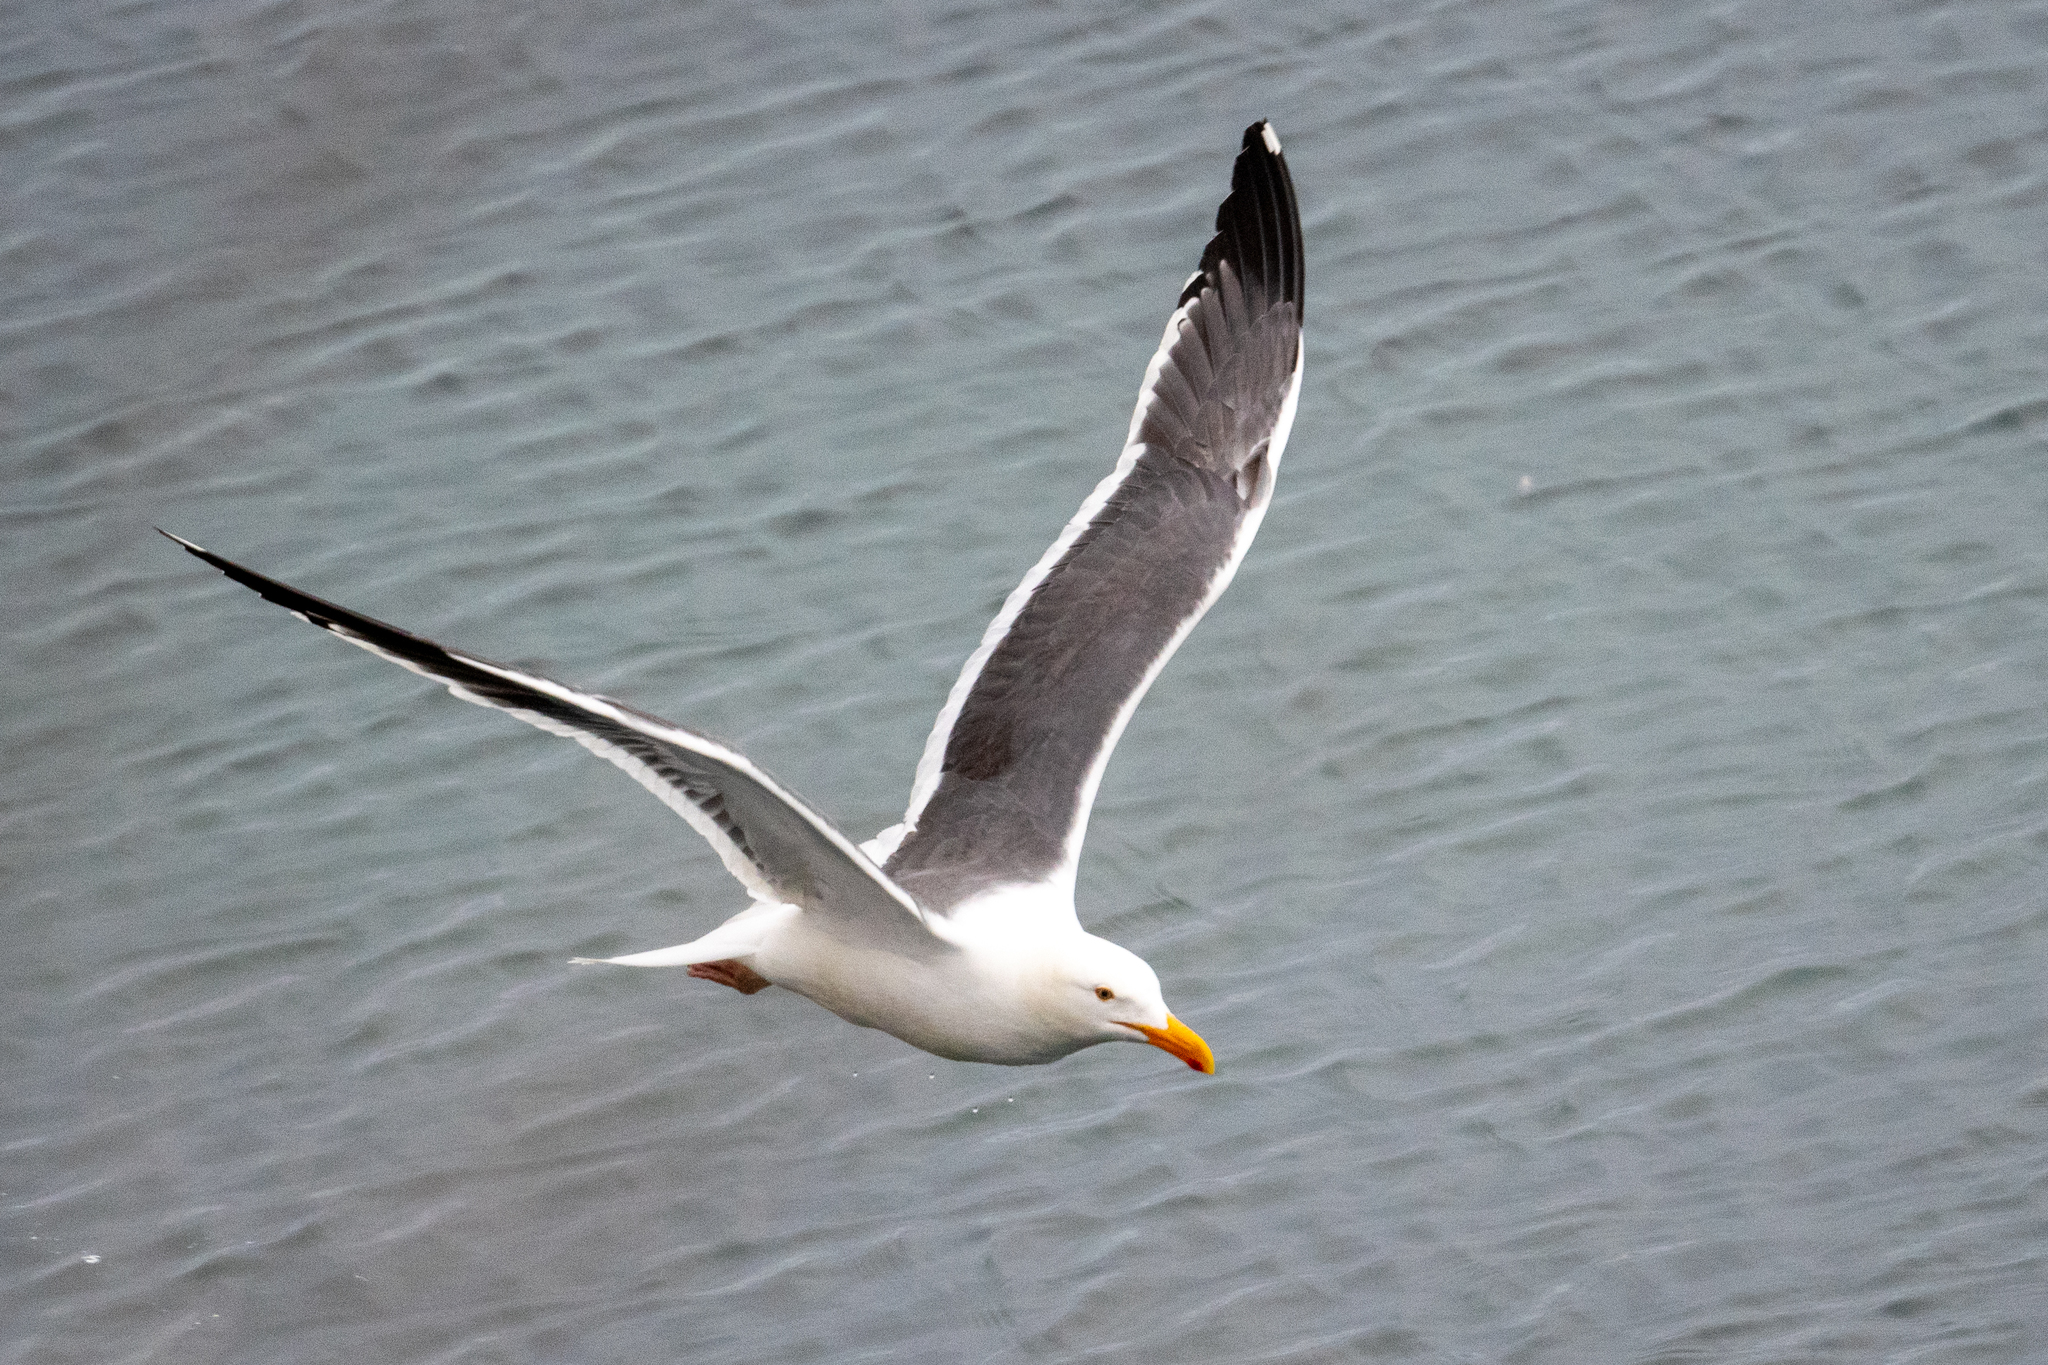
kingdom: Animalia
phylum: Chordata
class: Aves
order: Charadriiformes
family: Laridae
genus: Larus
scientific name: Larus occidentalis
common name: Western gull
